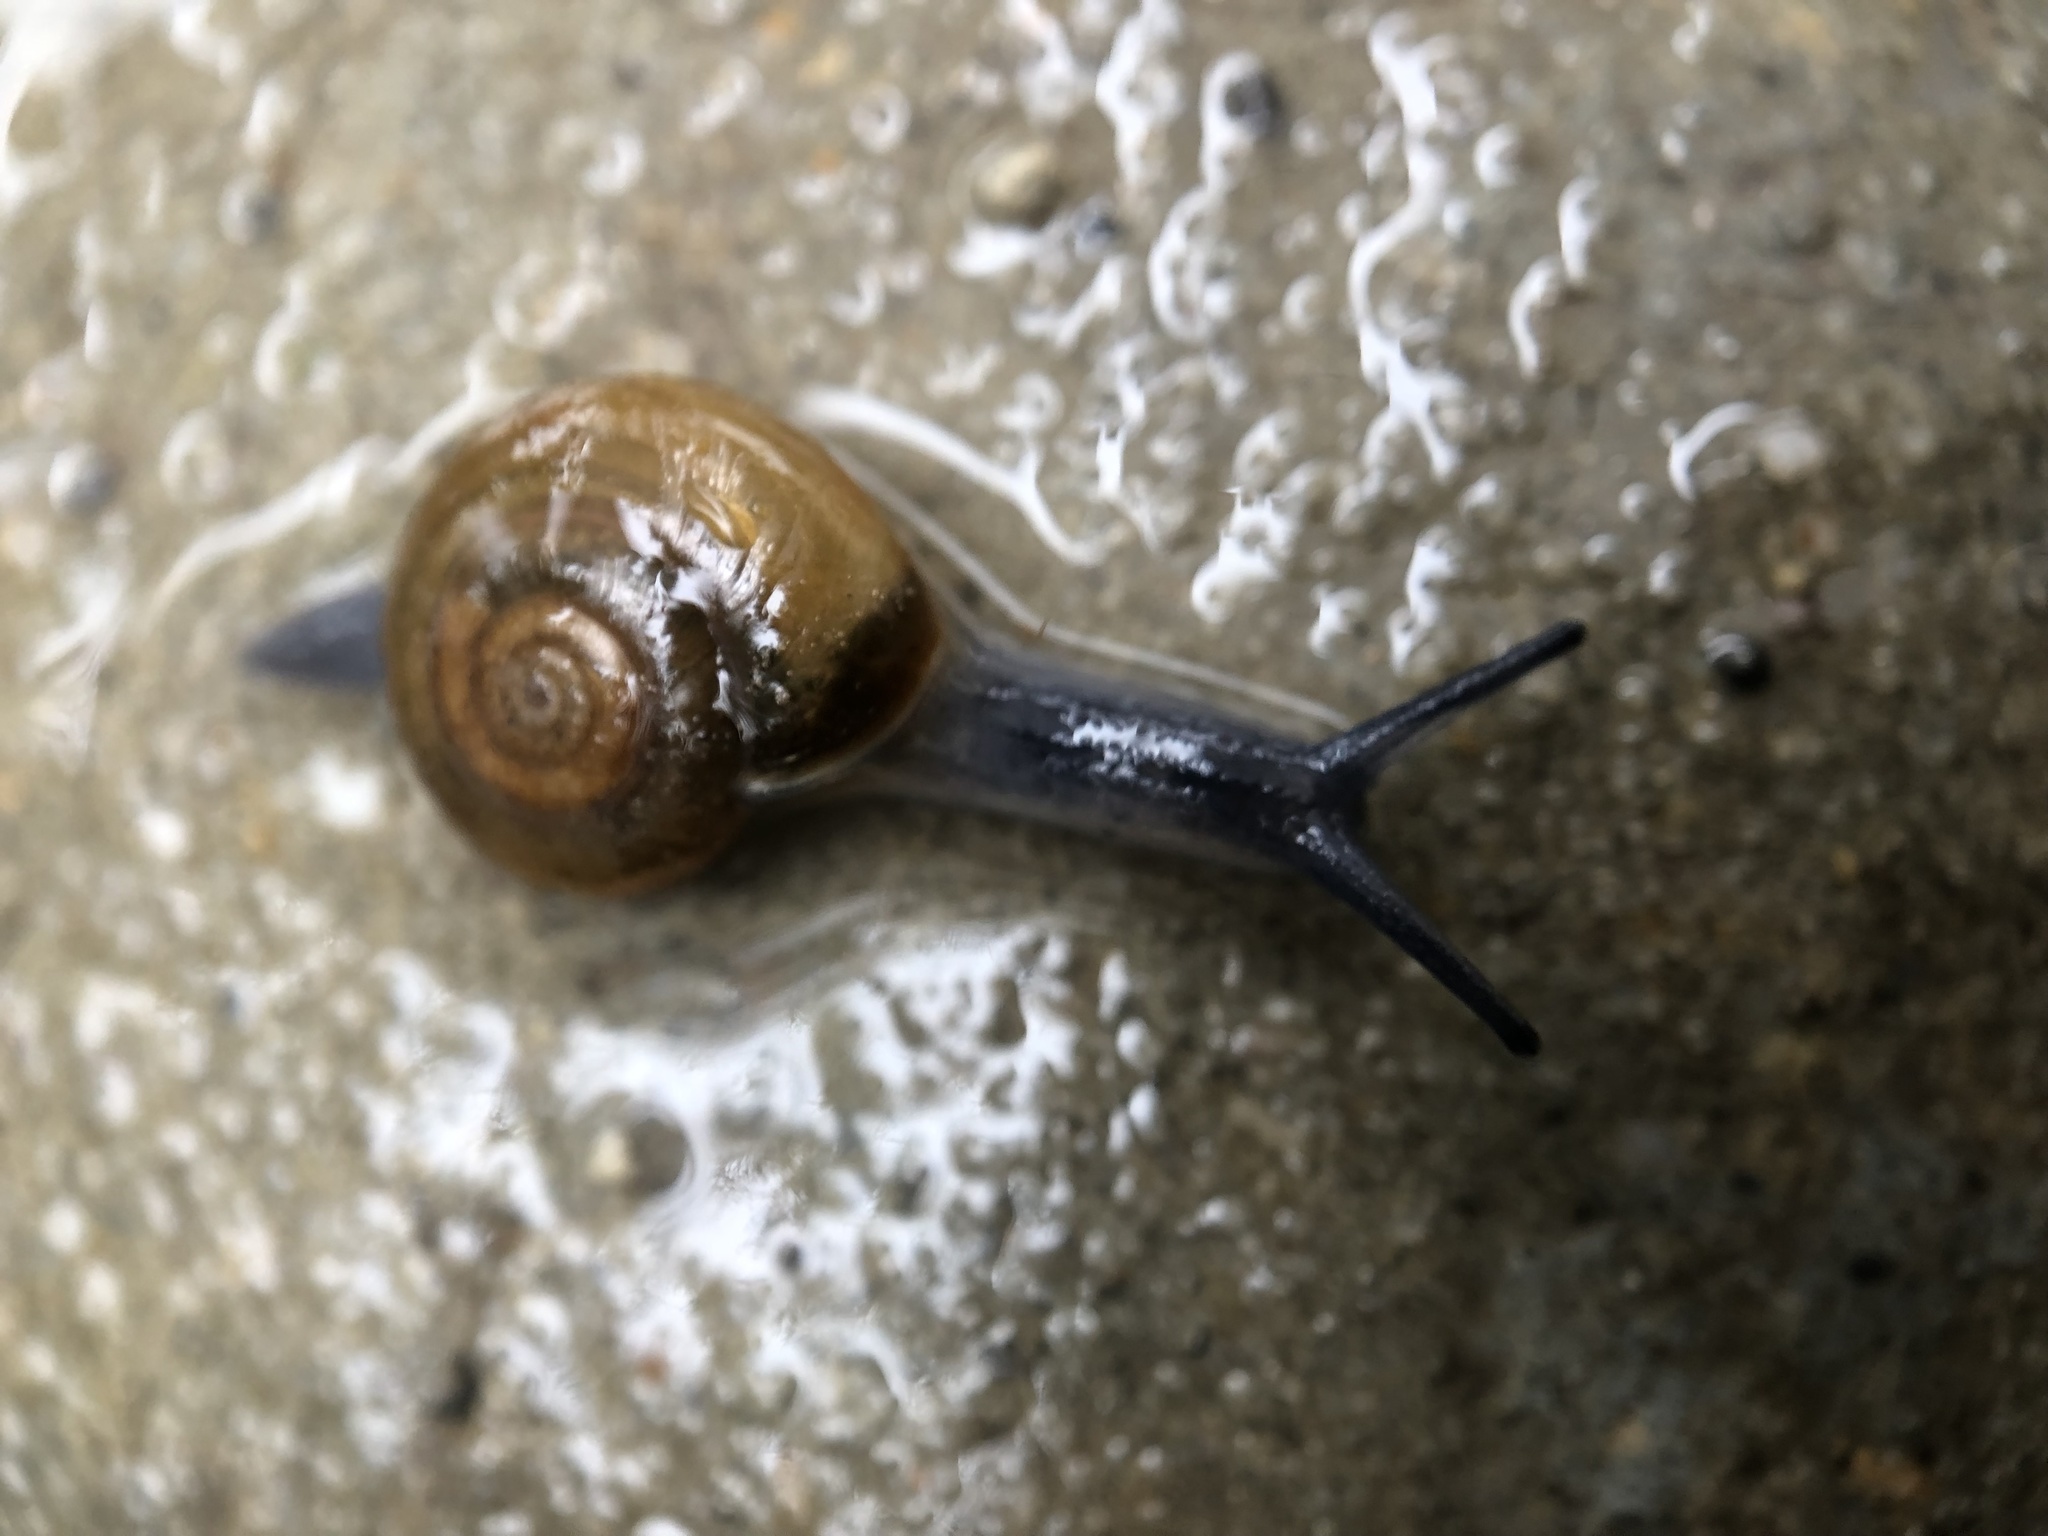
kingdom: Animalia
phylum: Mollusca
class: Gastropoda
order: Stylommatophora
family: Oxychilidae
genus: Oxychilus
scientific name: Oxychilus draparnaudi
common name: Draparnaud's glass snail
